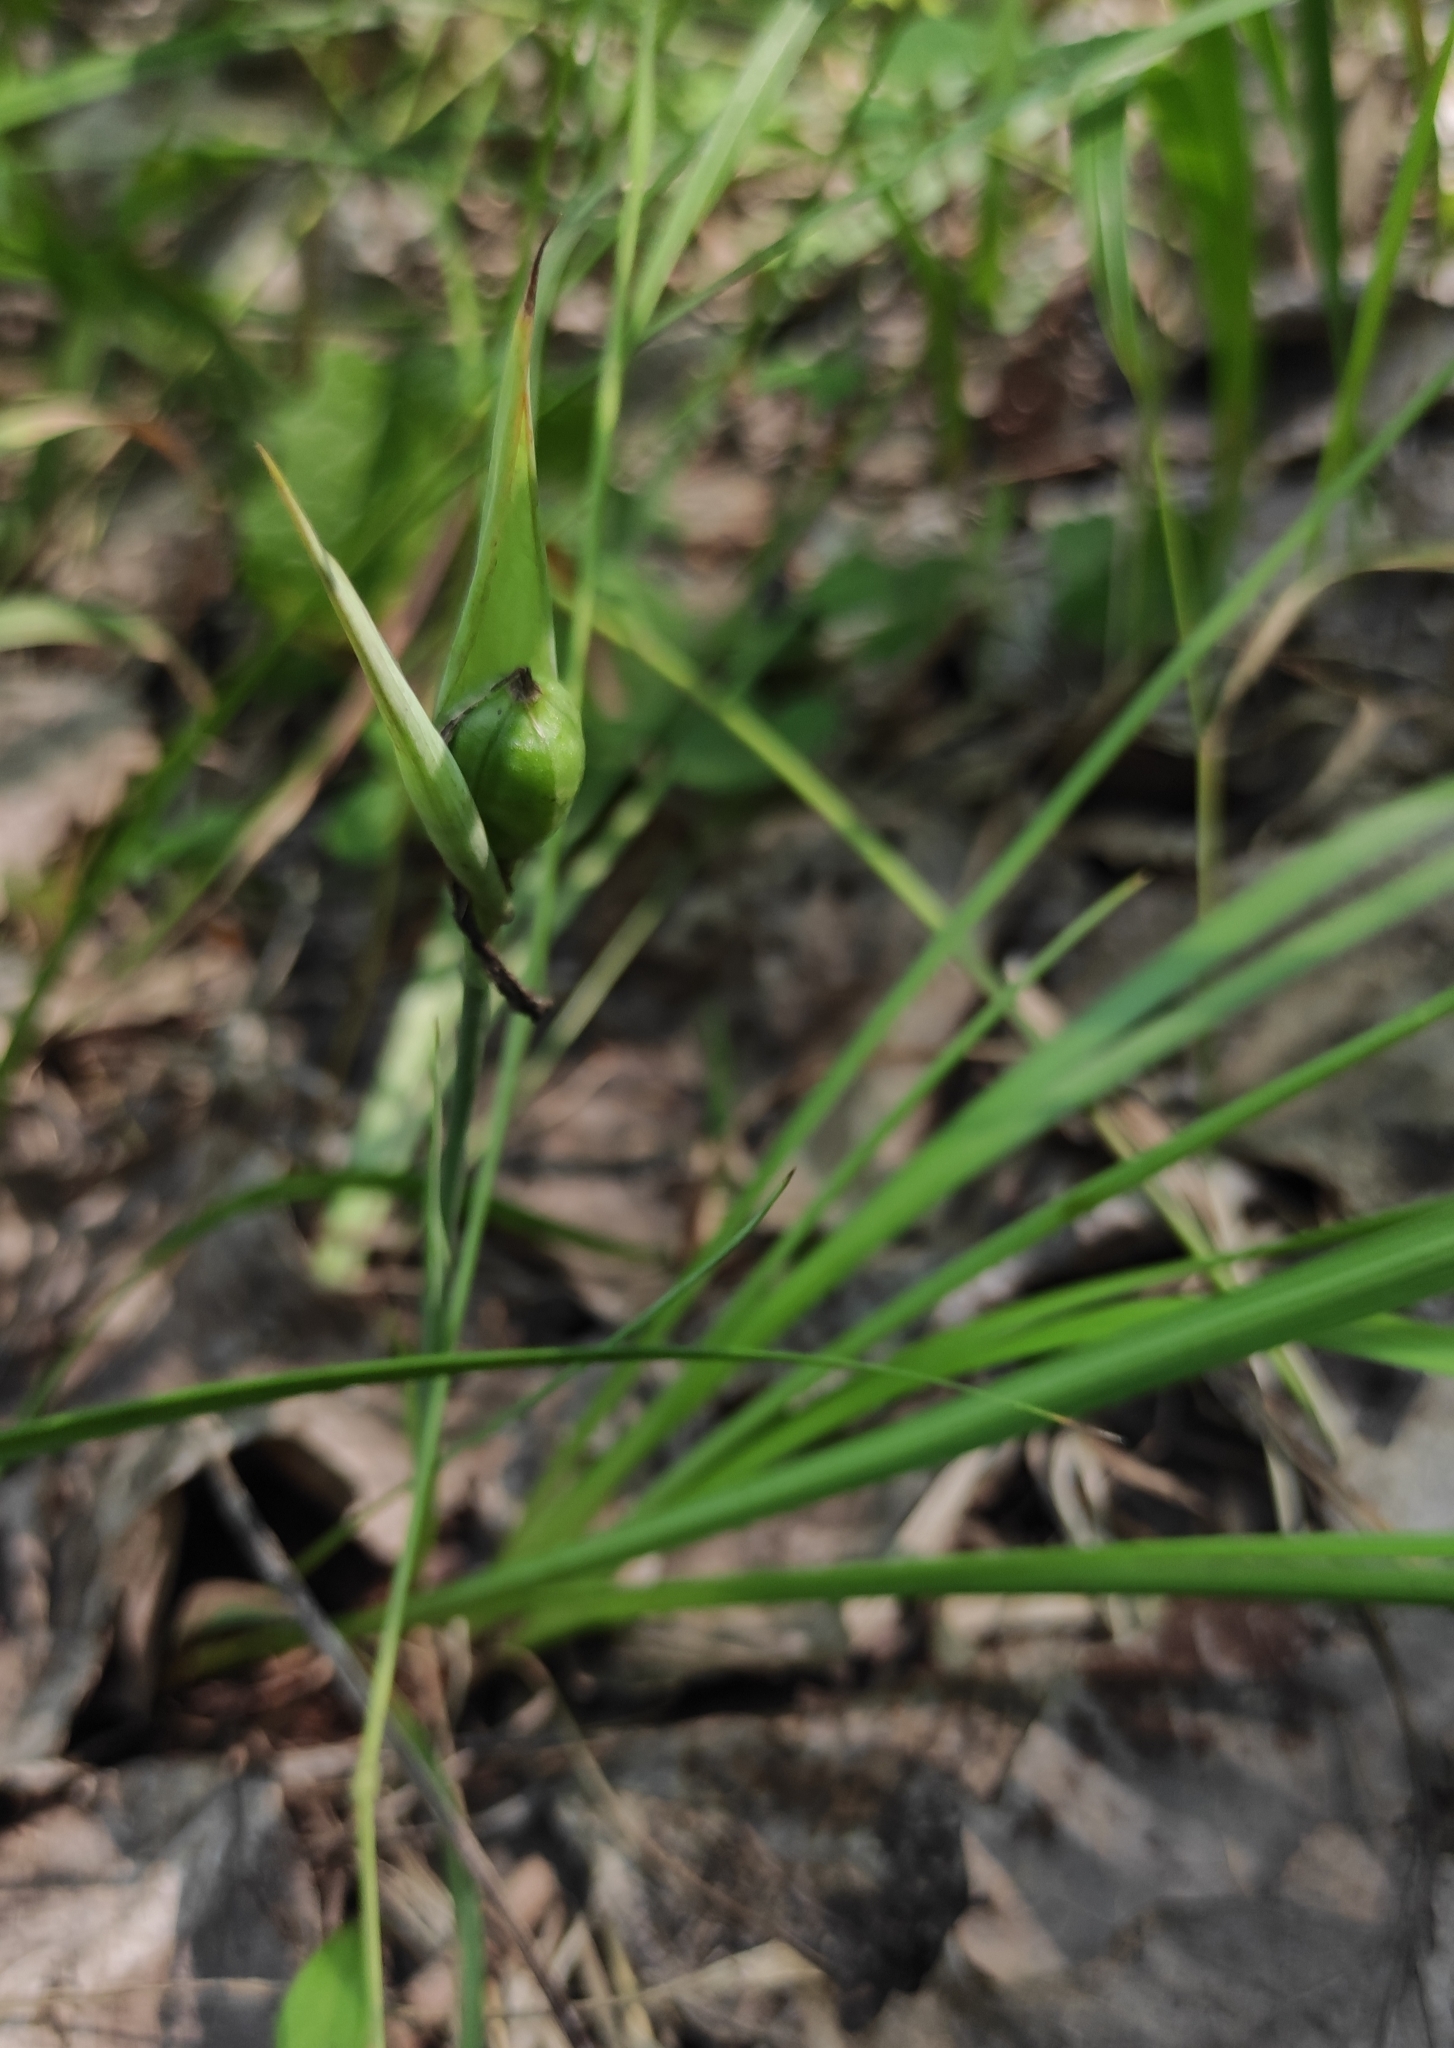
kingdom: Plantae
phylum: Tracheophyta
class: Liliopsida
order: Asparagales
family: Iridaceae
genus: Iris
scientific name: Iris ruthenica
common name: Purple-bract iris
